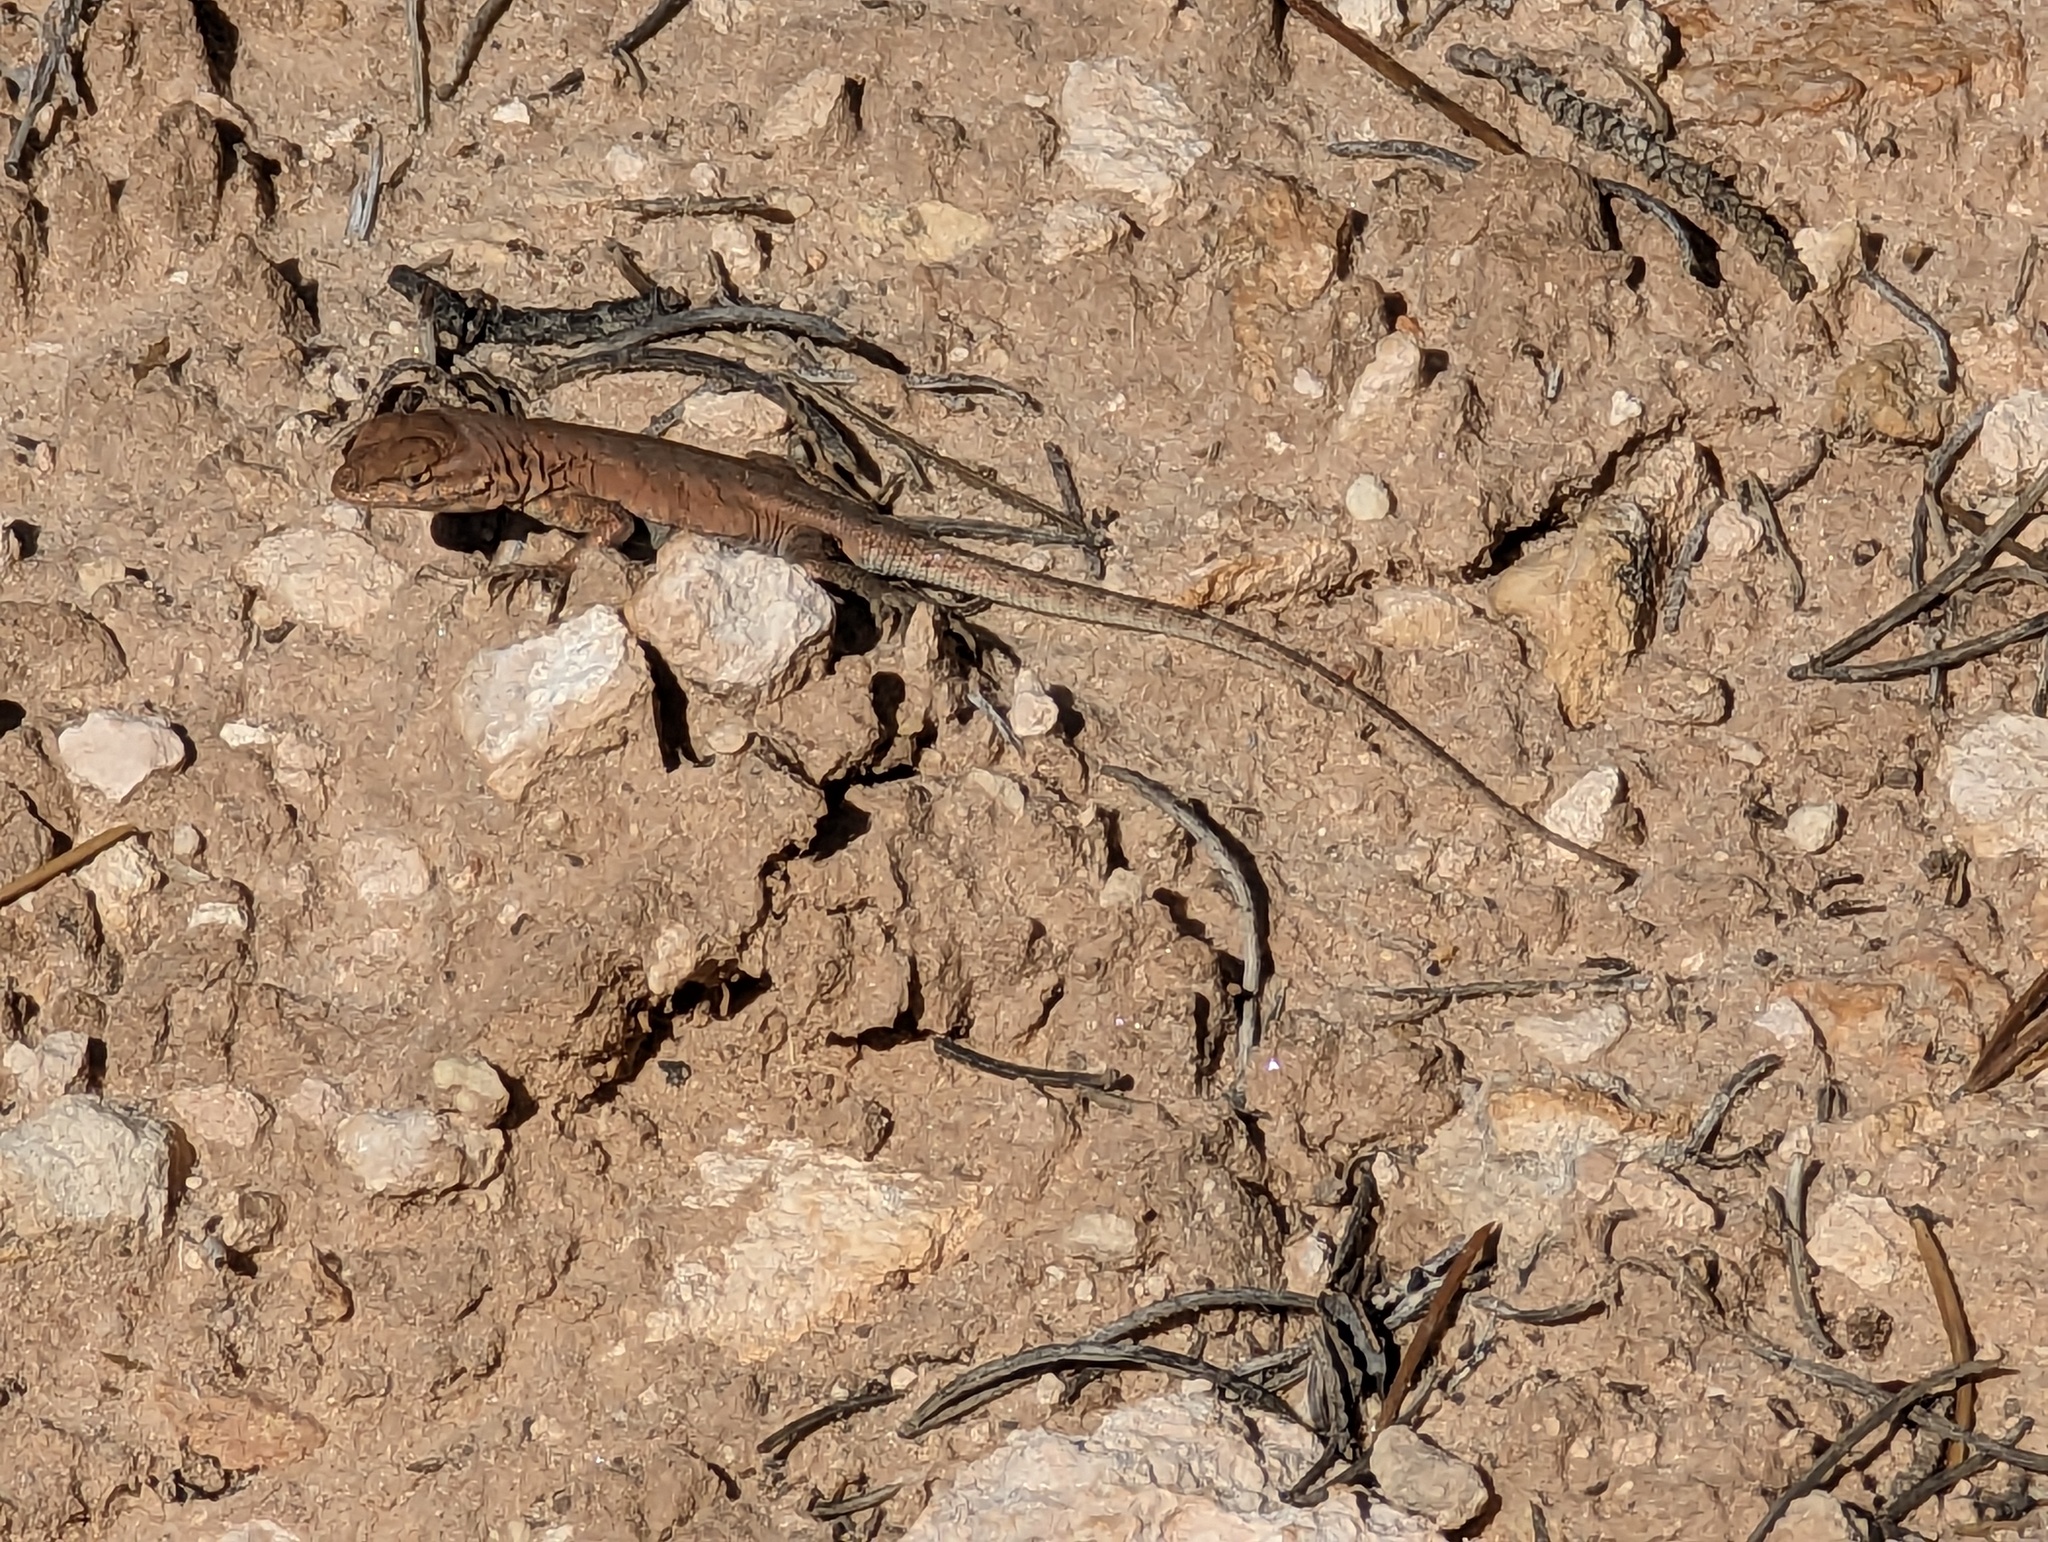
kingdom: Animalia
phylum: Chordata
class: Squamata
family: Phrynosomatidae
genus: Uta
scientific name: Uta stansburiana
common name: Side-blotched lizard
